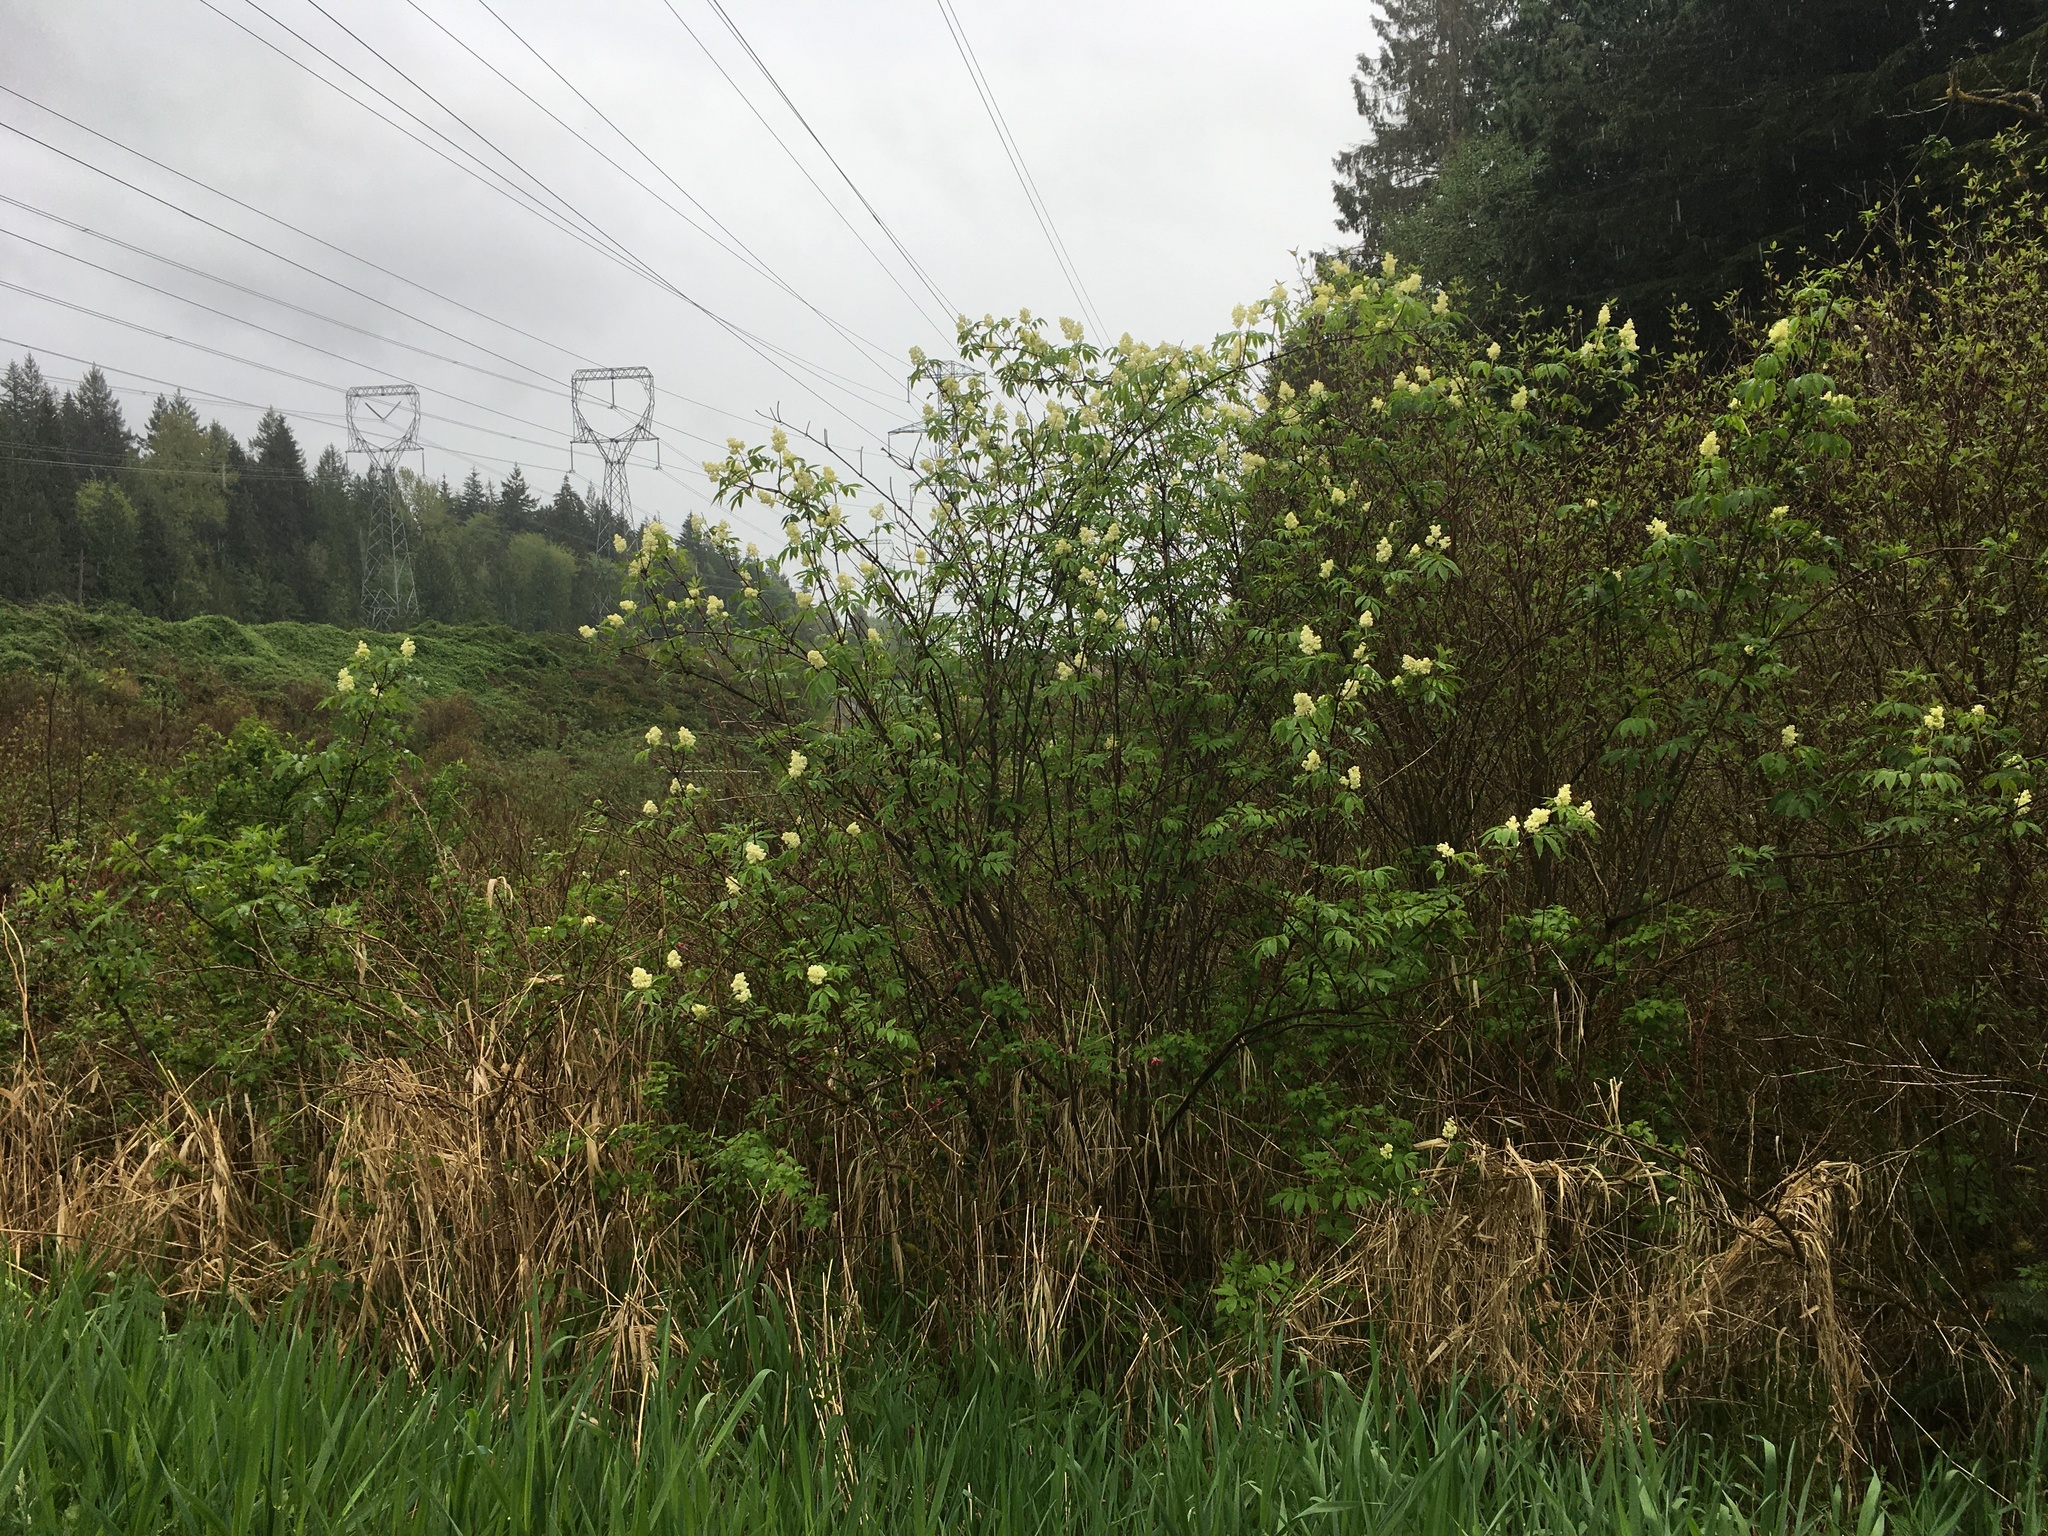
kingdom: Plantae
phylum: Tracheophyta
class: Magnoliopsida
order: Dipsacales
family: Viburnaceae
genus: Sambucus
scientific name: Sambucus racemosa
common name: Red-berried elder
